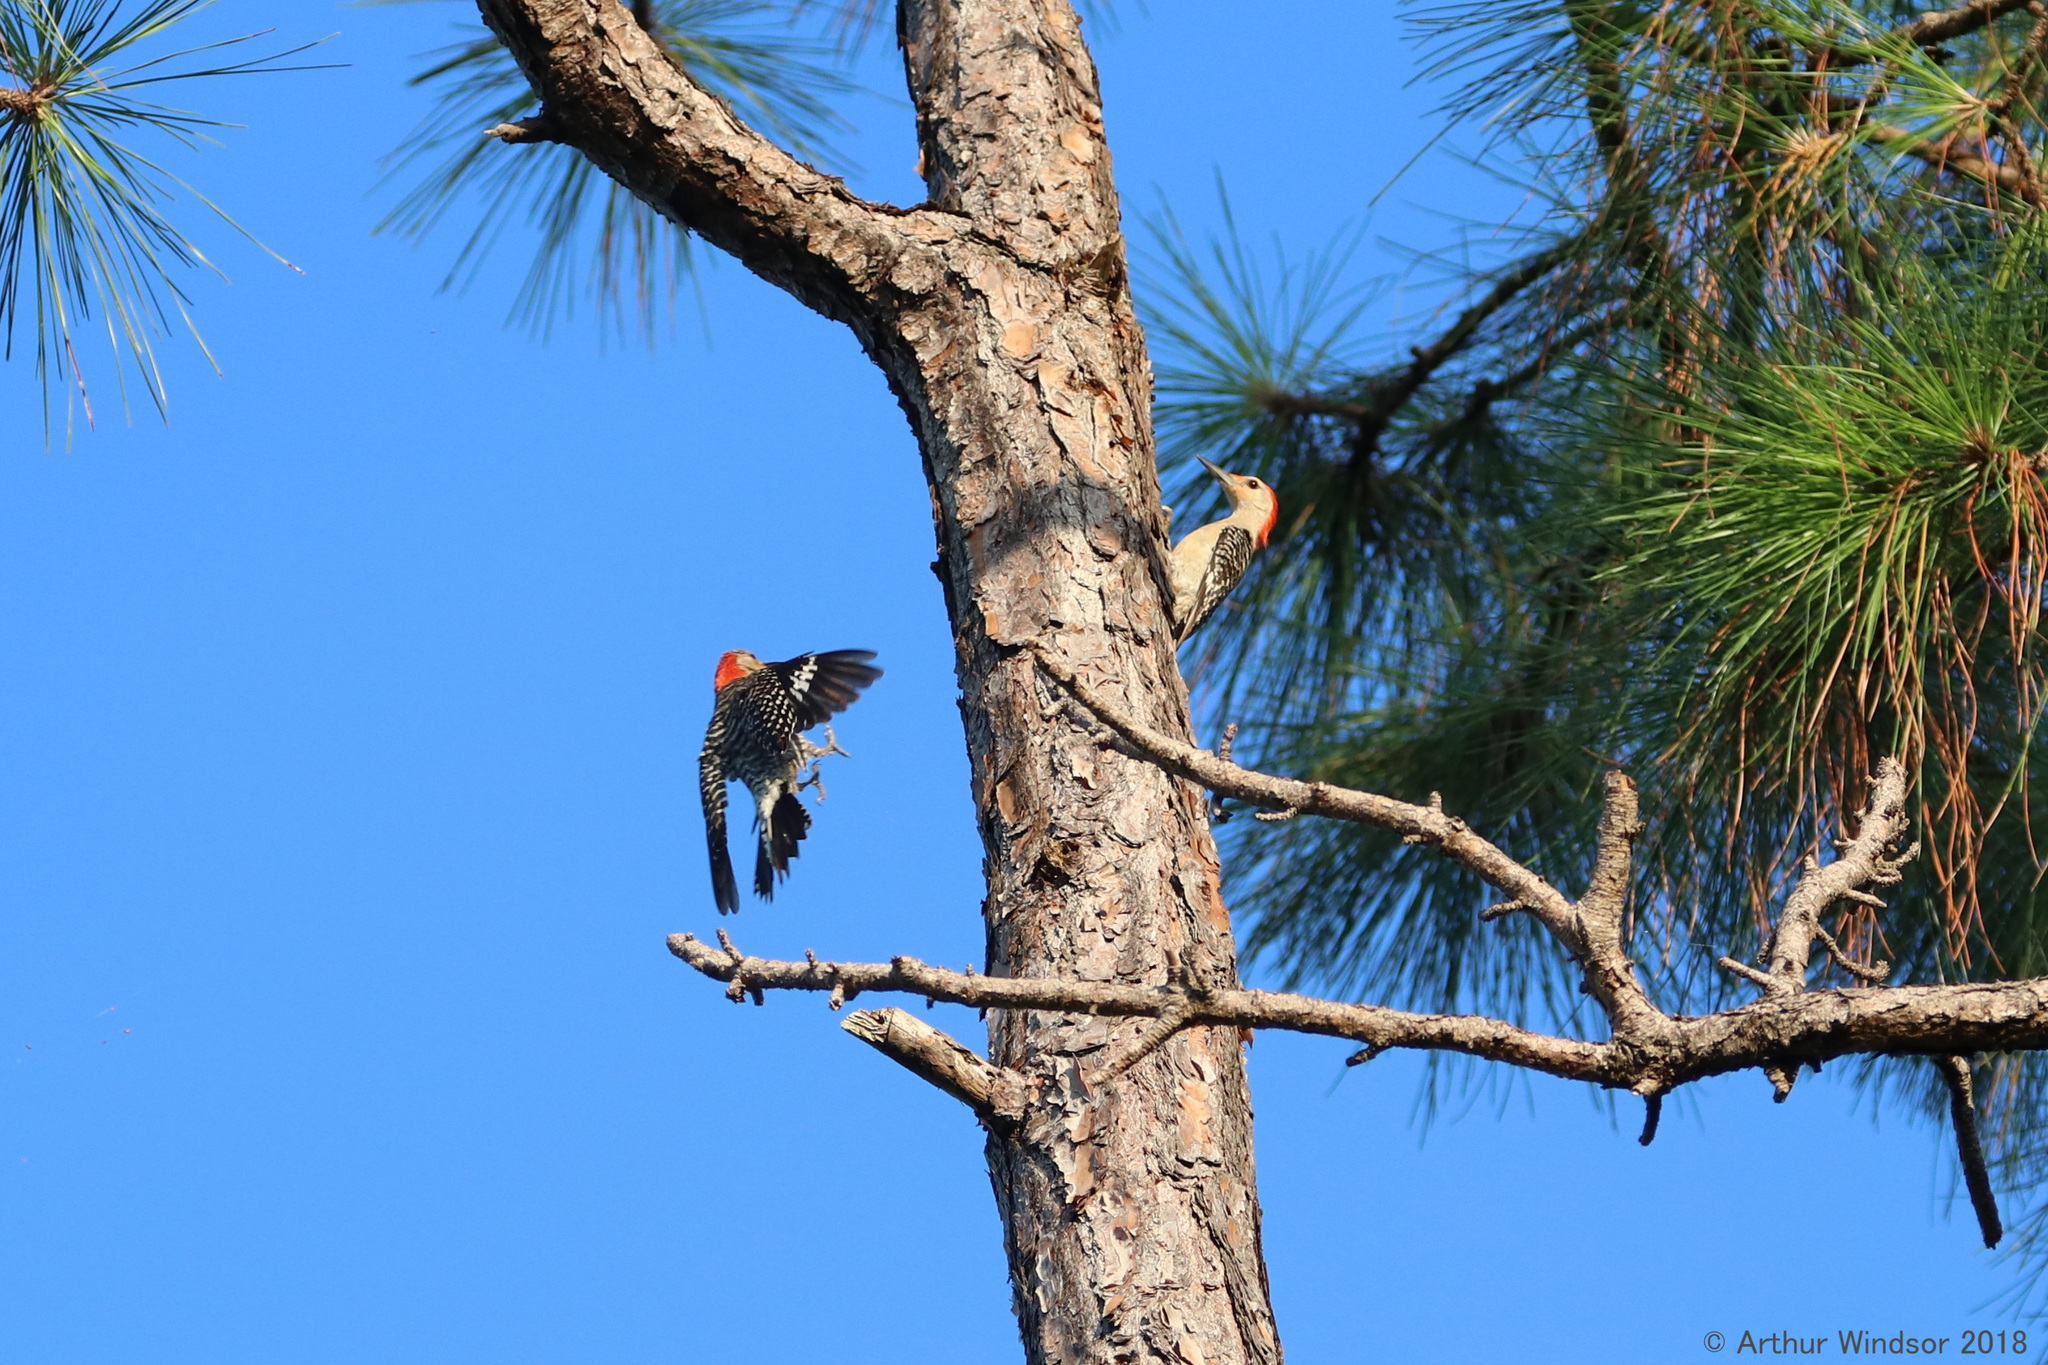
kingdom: Animalia
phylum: Chordata
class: Aves
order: Piciformes
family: Picidae
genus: Melanerpes
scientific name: Melanerpes carolinus
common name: Red-bellied woodpecker
